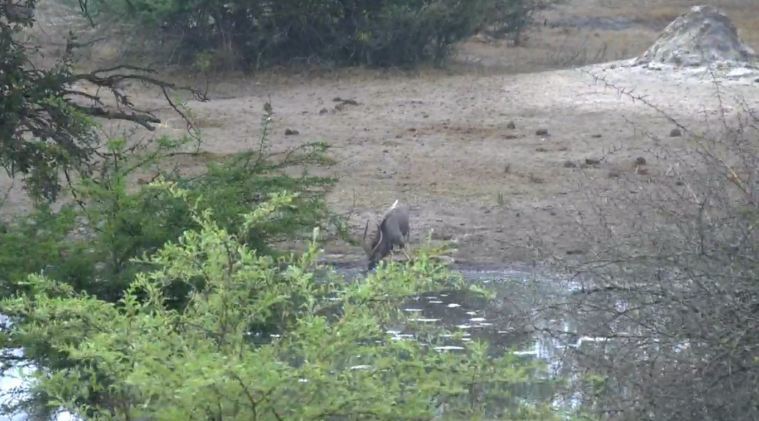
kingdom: Animalia
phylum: Chordata
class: Mammalia
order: Artiodactyla
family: Bovidae
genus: Tragelaphus
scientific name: Tragelaphus angasii
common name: Nyala
